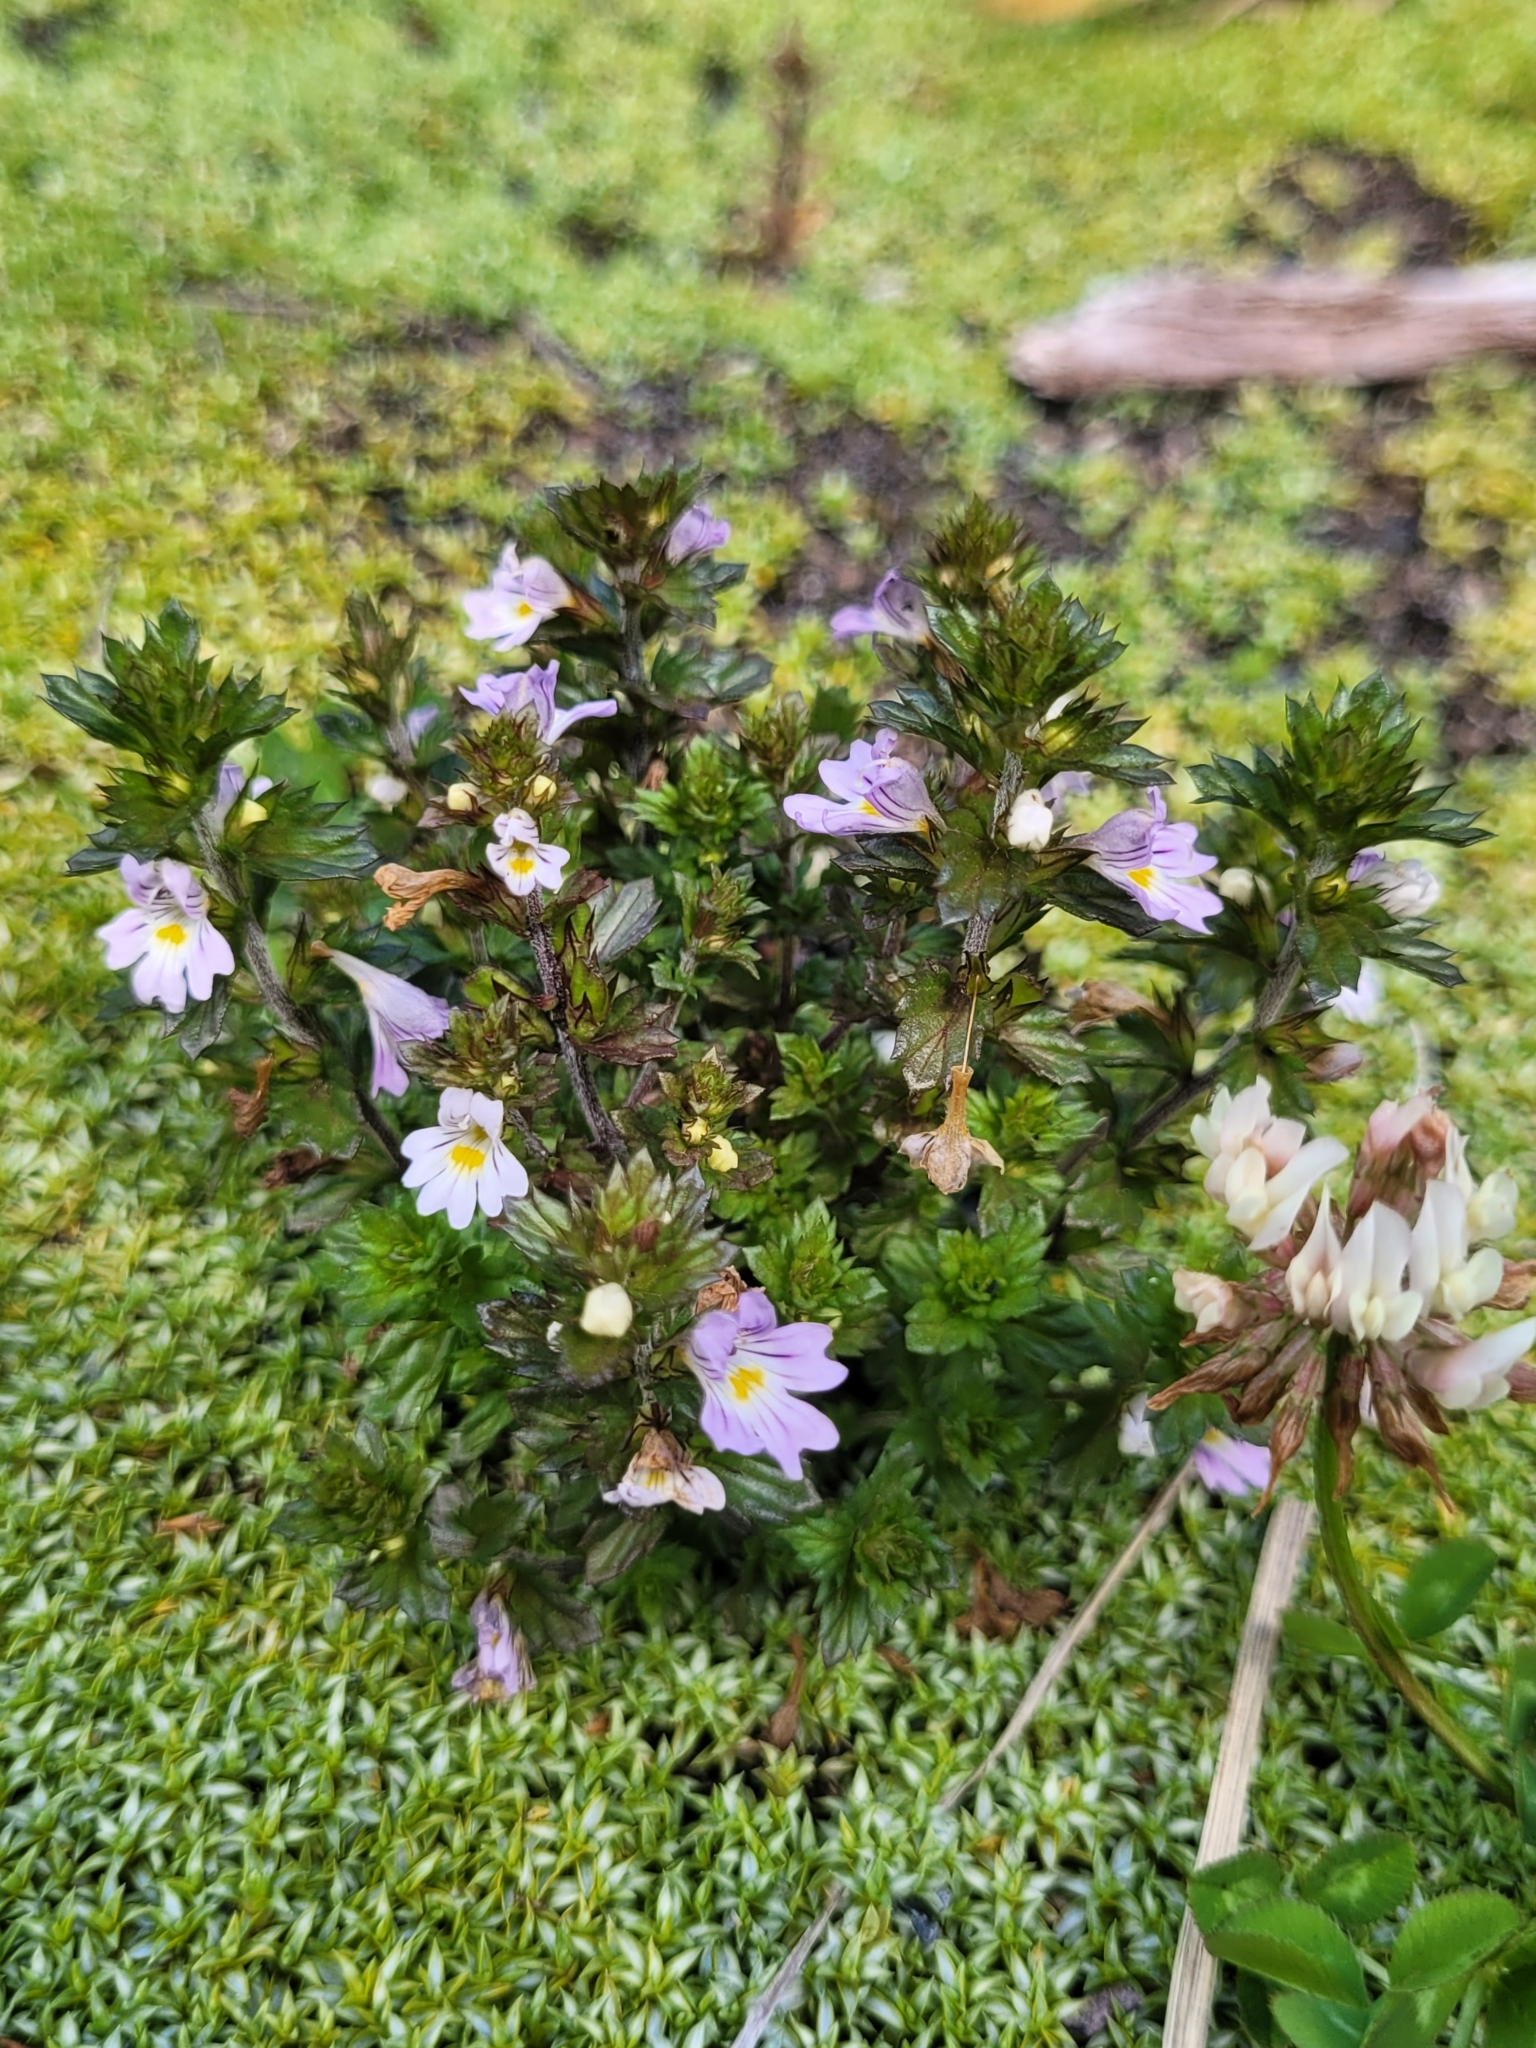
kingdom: Plantae
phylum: Tracheophyta
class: Magnoliopsida
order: Lamiales
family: Orobanchaceae
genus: Euphrasia
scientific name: Euphrasia nemorosa
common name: Common eyebright
